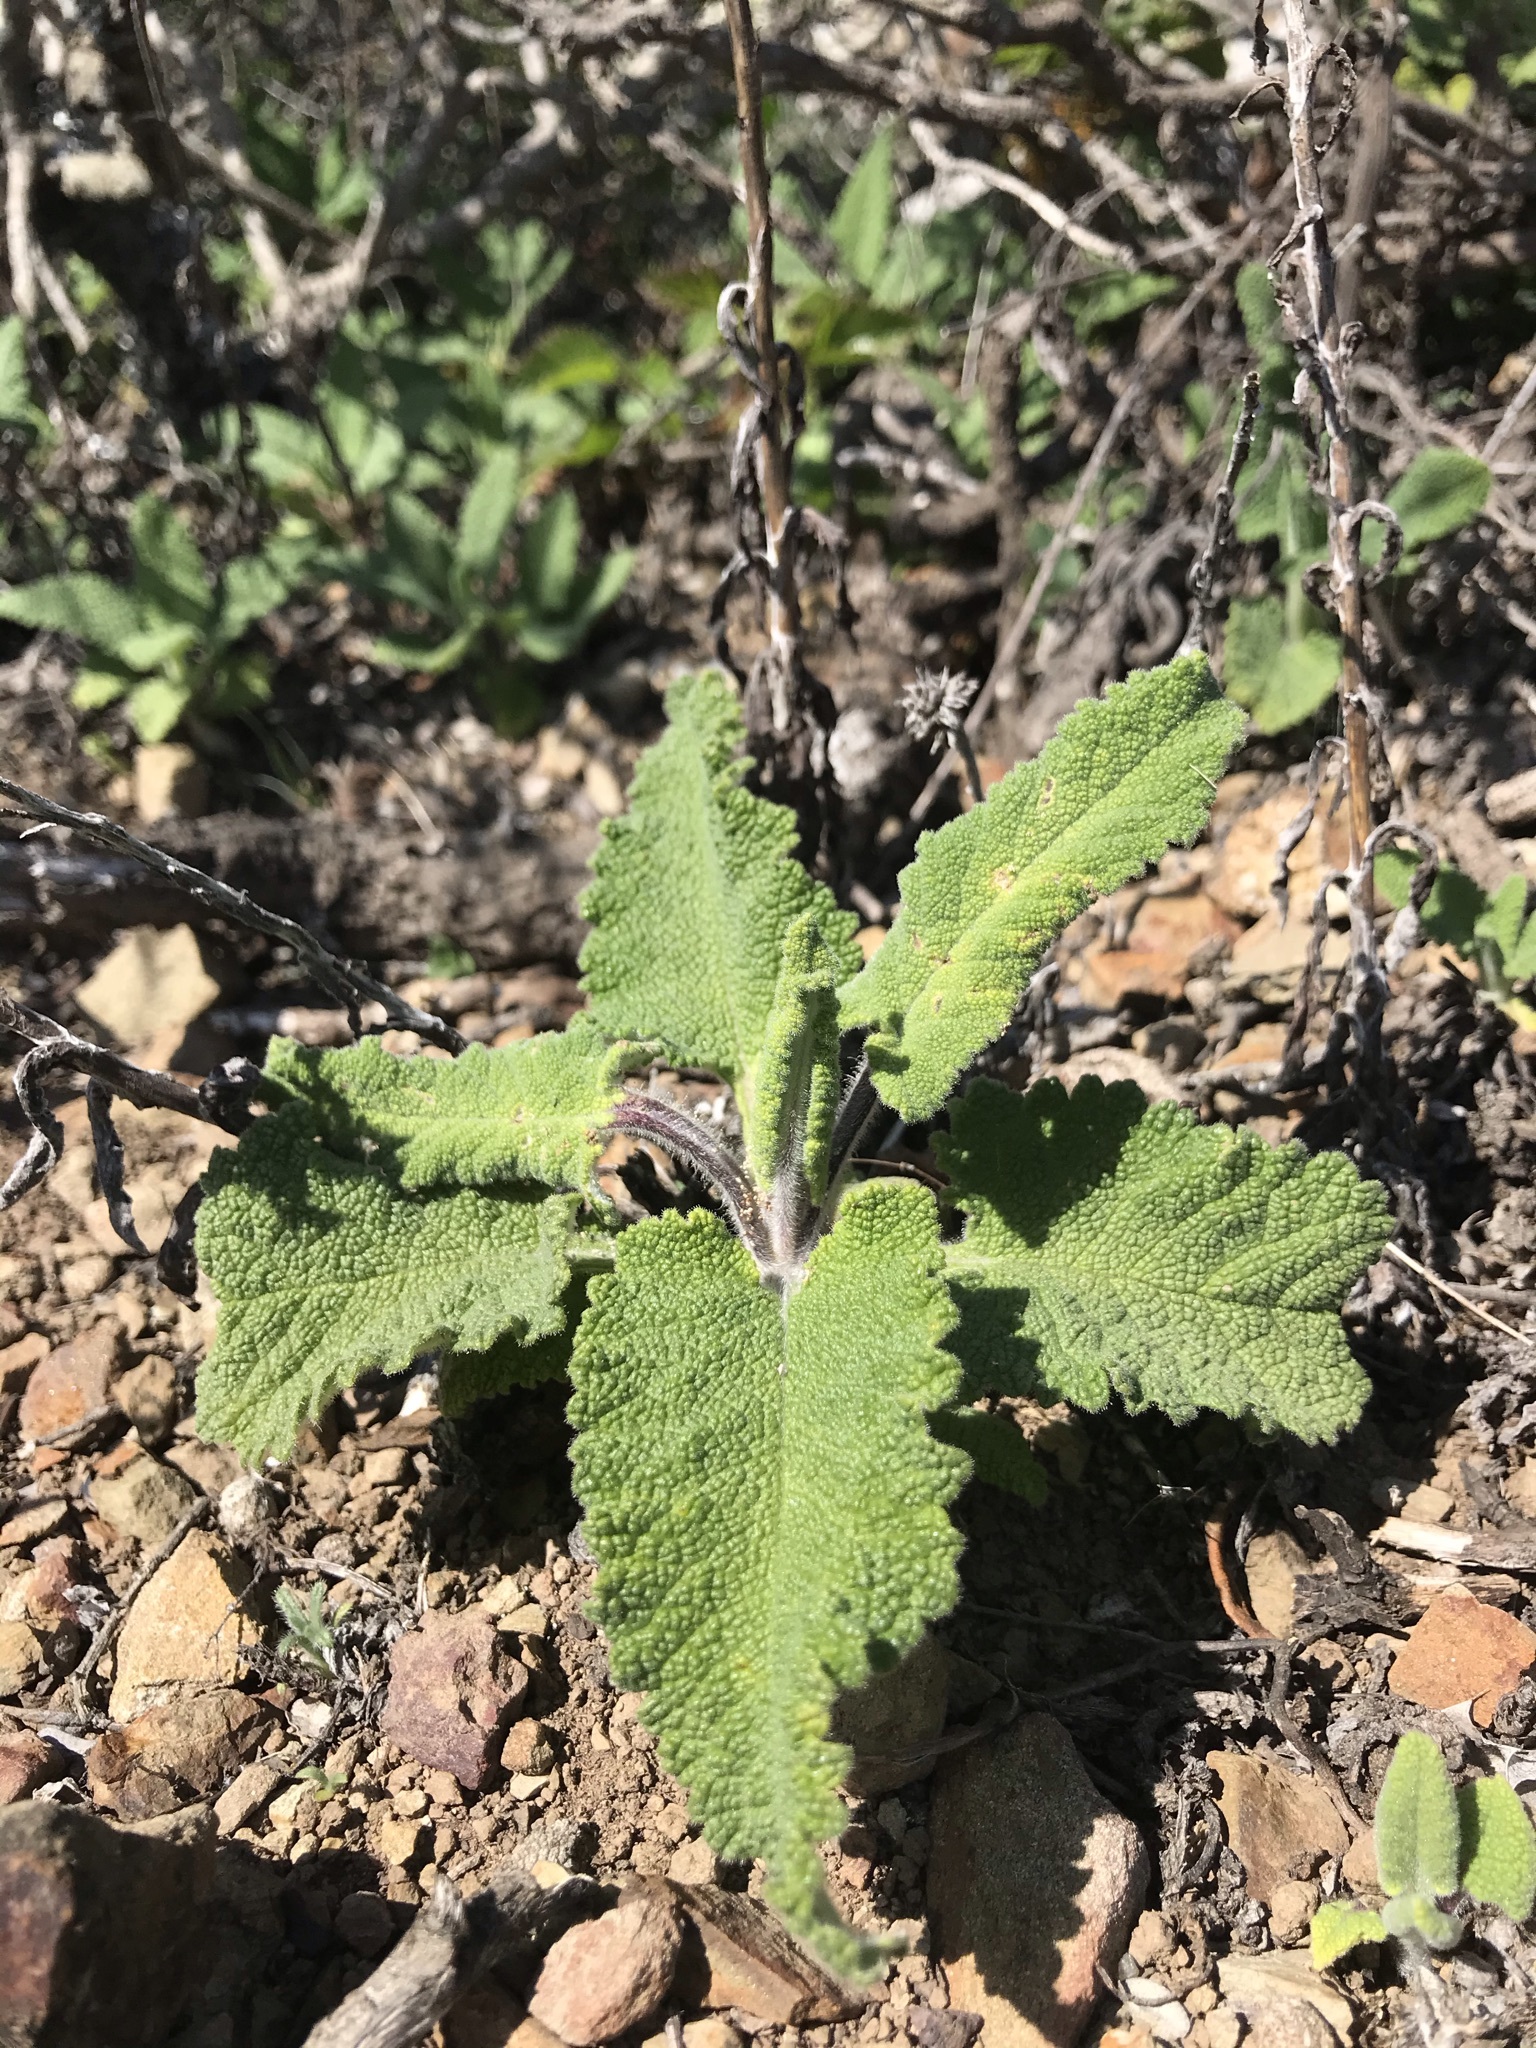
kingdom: Plantae
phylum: Tracheophyta
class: Magnoliopsida
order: Lamiales
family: Lamiaceae
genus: Salvia
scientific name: Salvia spathacea
